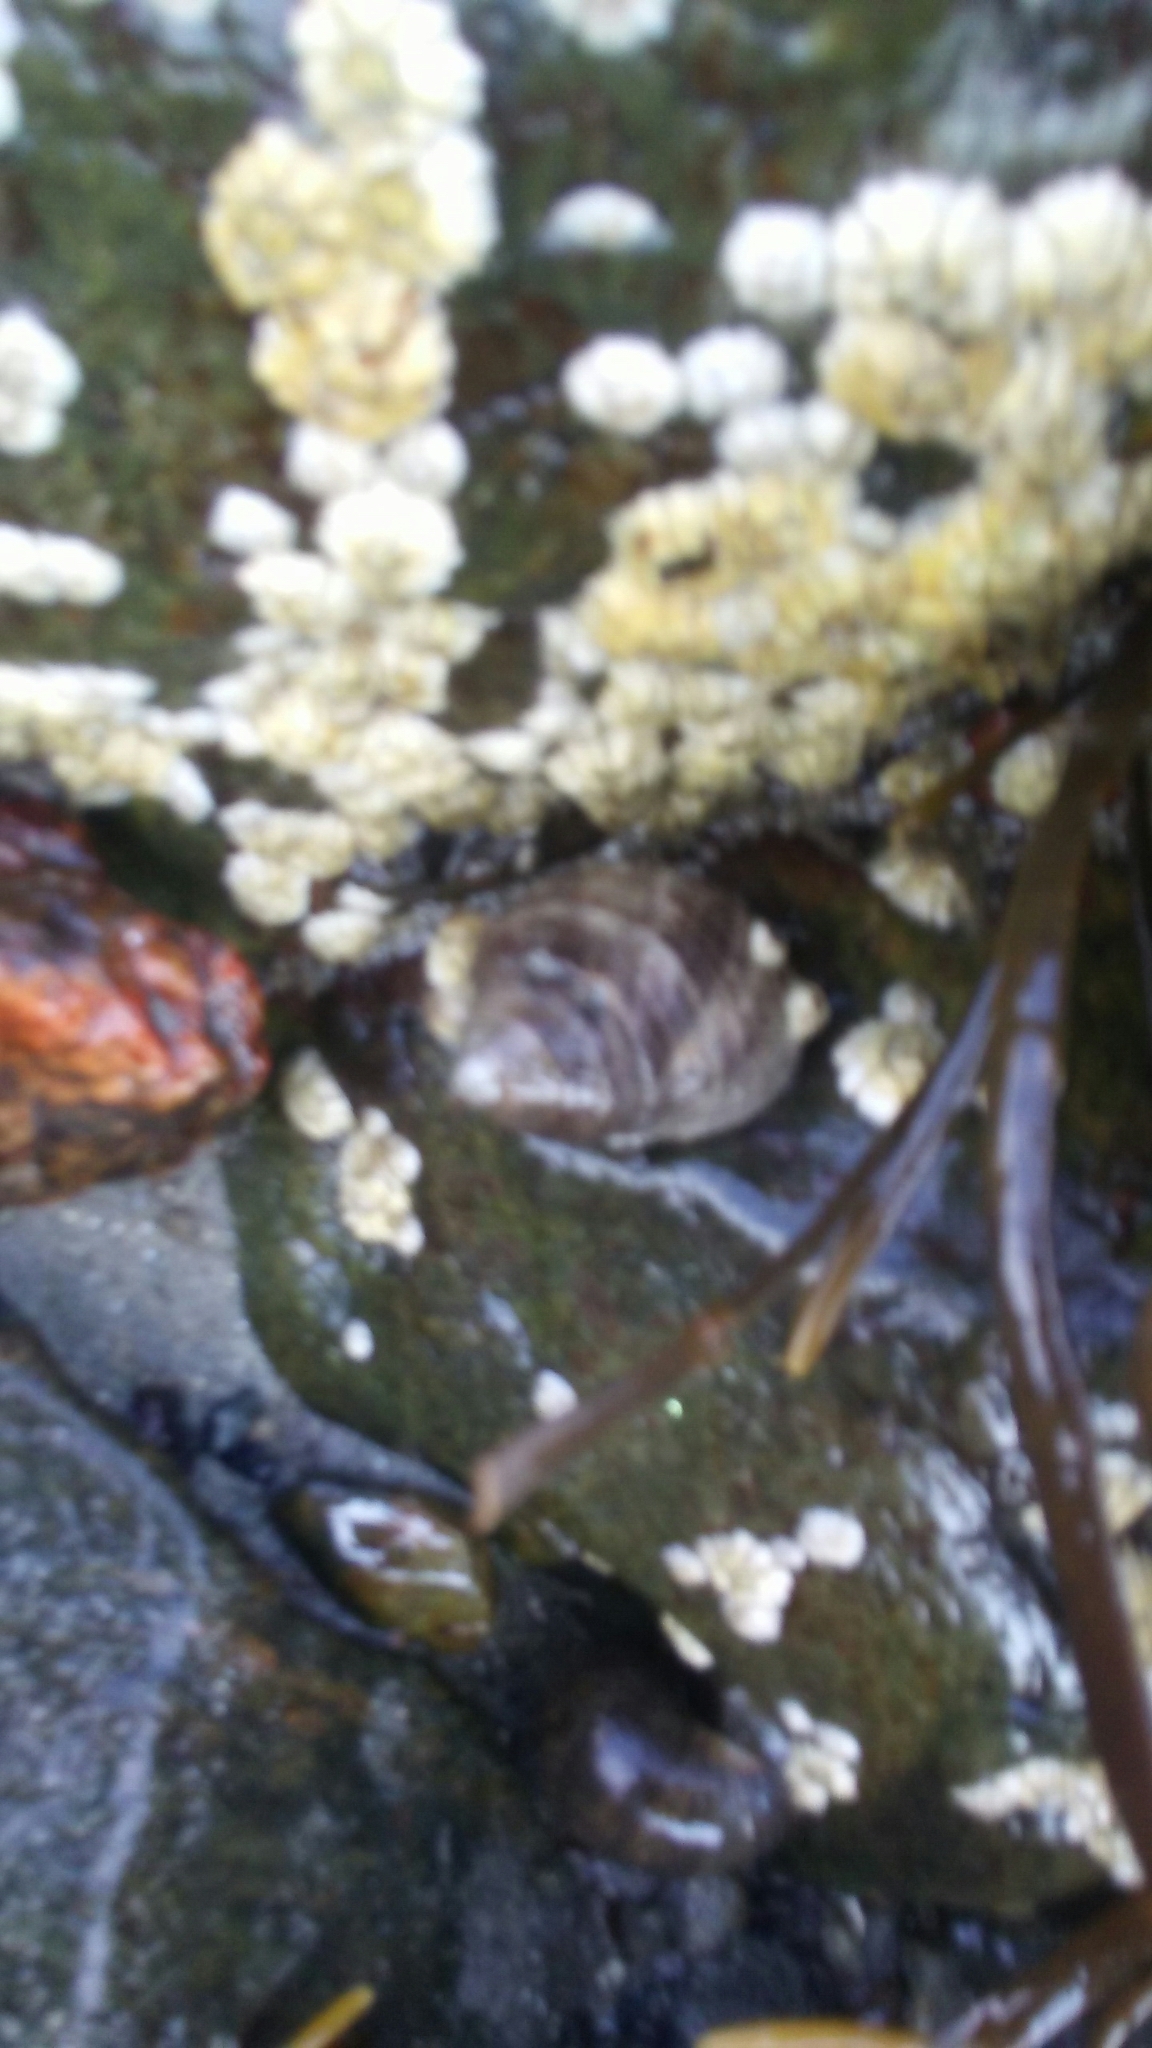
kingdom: Animalia
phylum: Mollusca
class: Gastropoda
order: Littorinimorpha
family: Littorinidae
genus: Littorina
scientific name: Littorina littorea
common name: Common periwinkle
